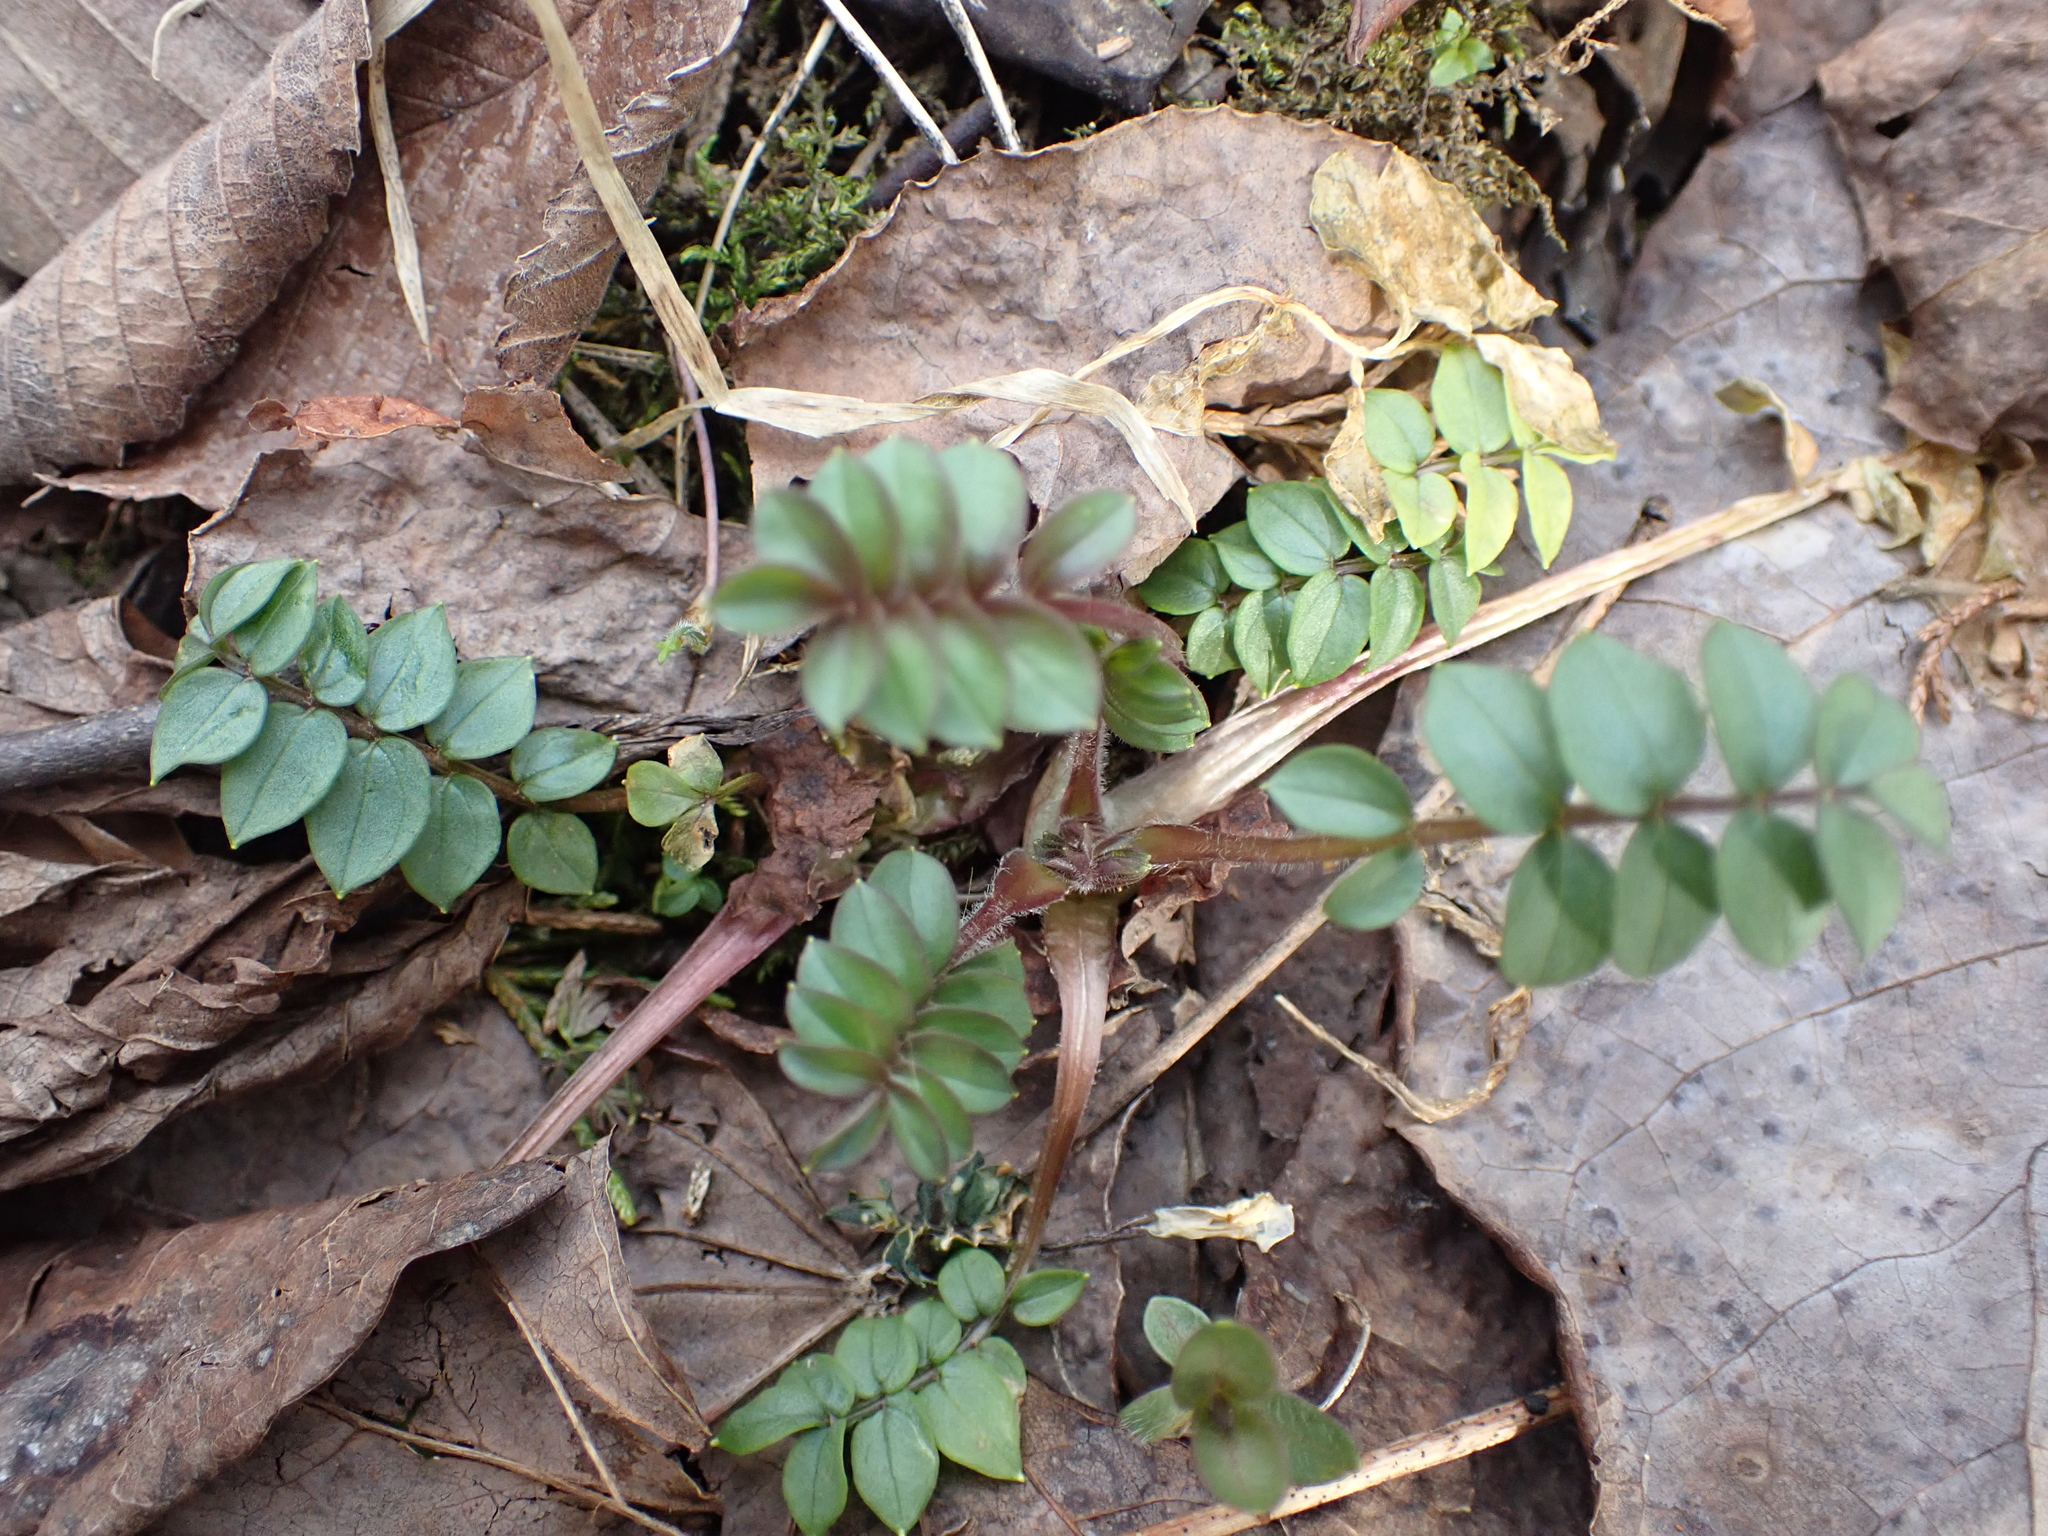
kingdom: Plantae
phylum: Tracheophyta
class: Magnoliopsida
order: Ericales
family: Polemoniaceae
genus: Polemonium
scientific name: Polemonium reptans
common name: Creeping jacob's-ladder
